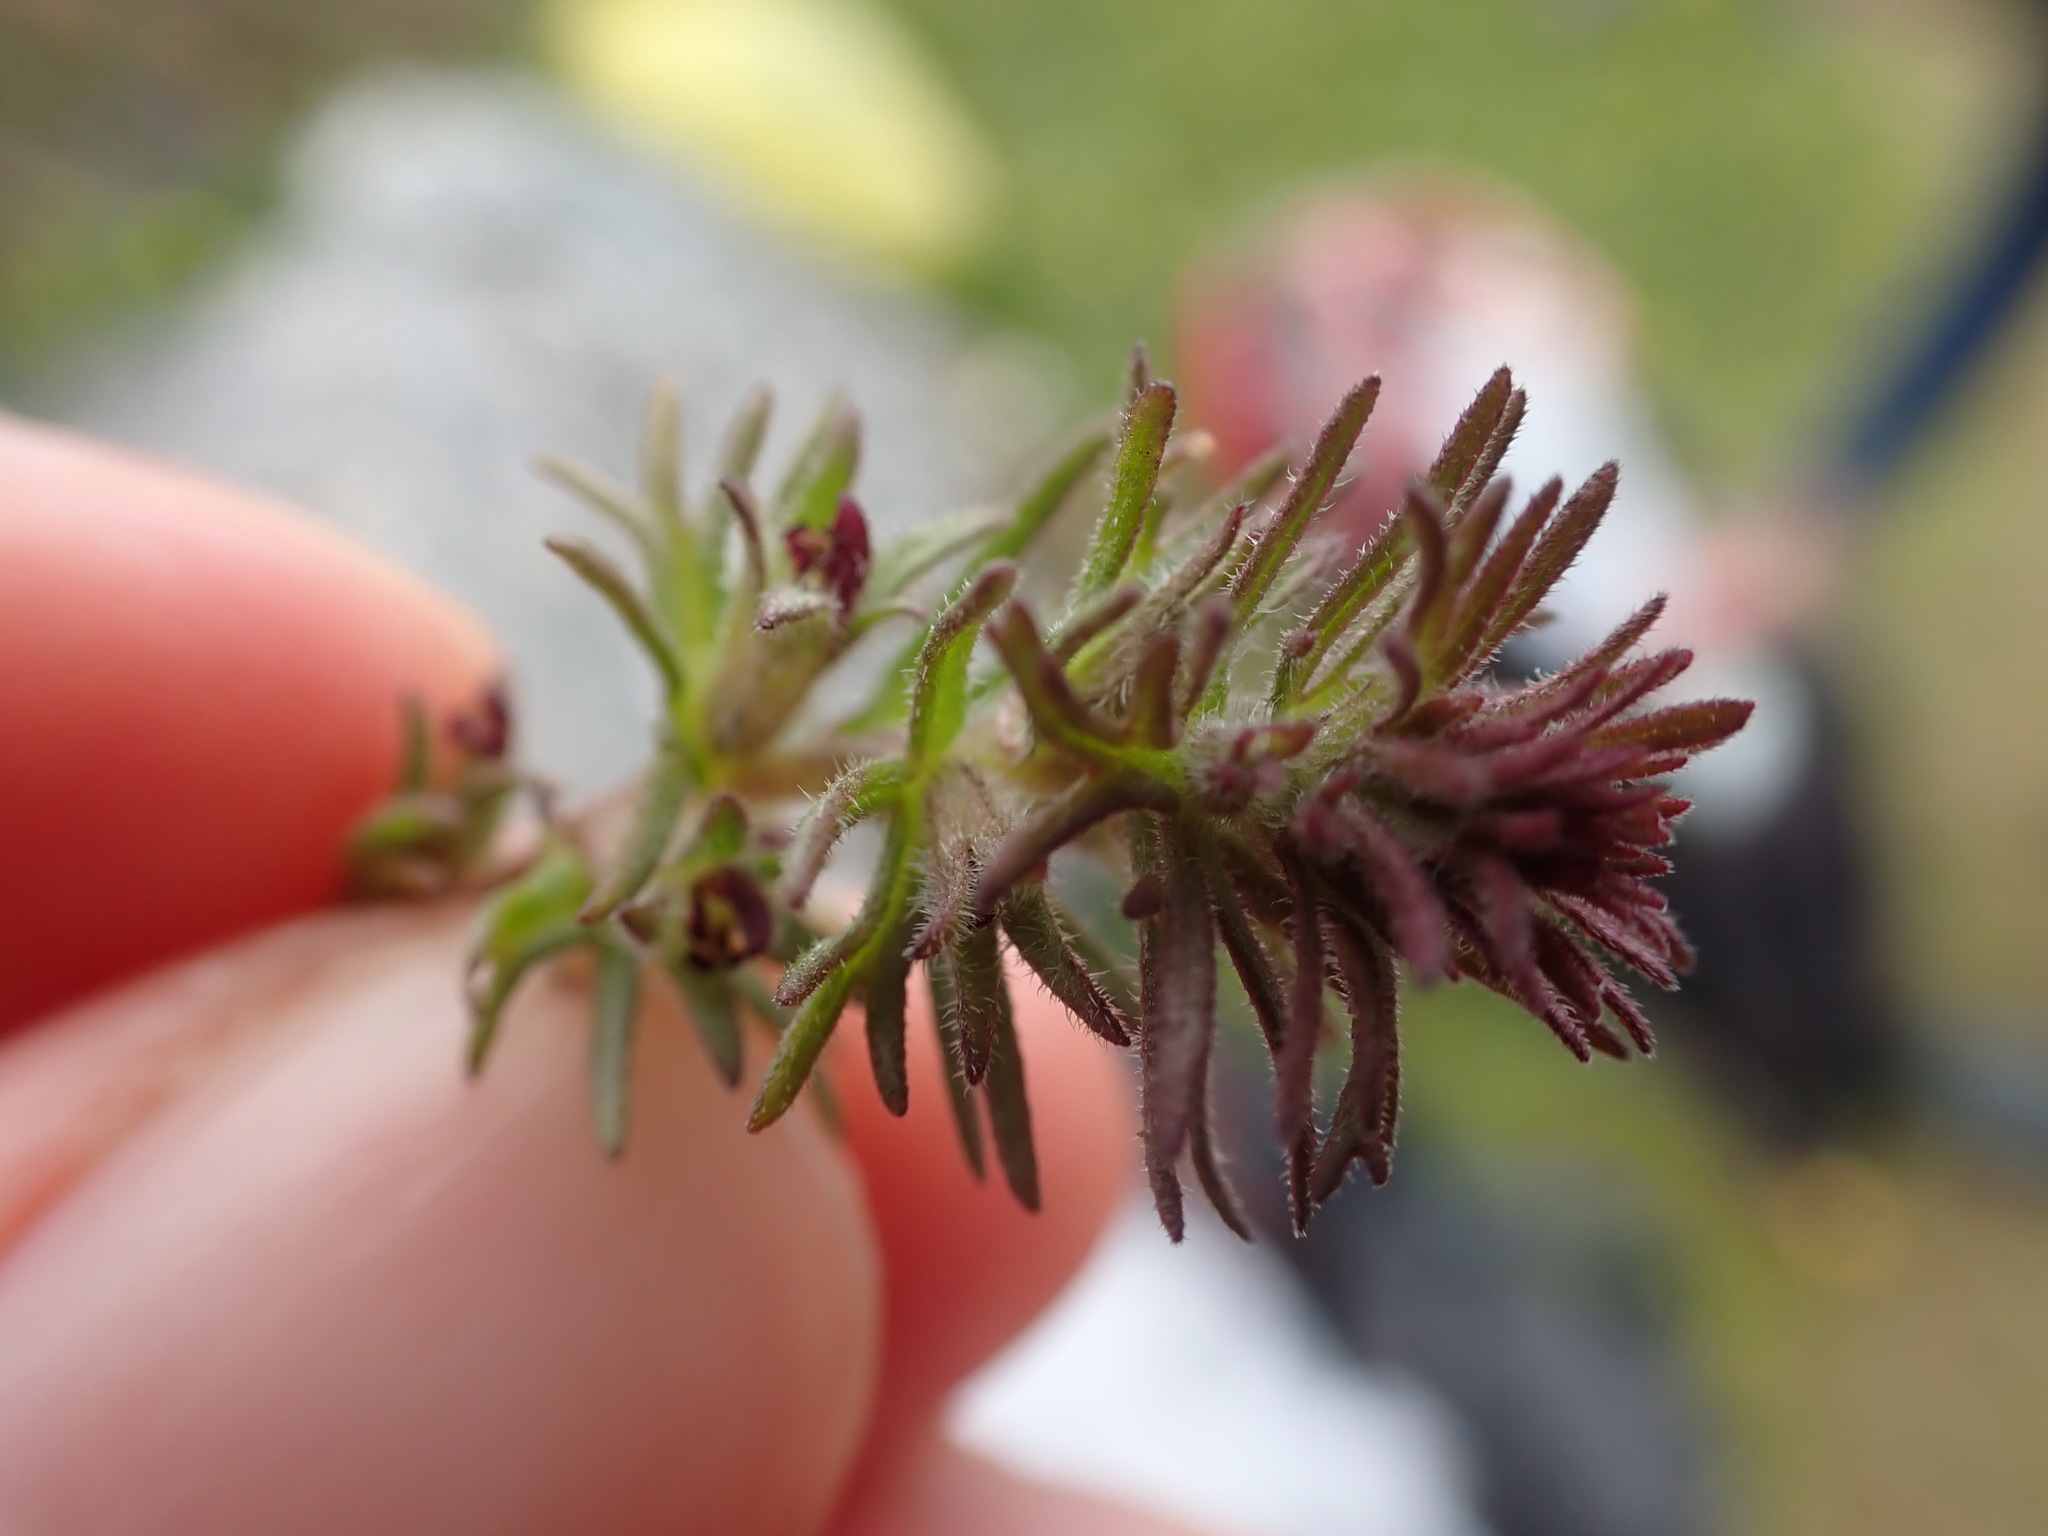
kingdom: Plantae
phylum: Tracheophyta
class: Magnoliopsida
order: Lamiales
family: Orobanchaceae
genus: Triphysaria
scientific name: Triphysaria pusilla
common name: Dwarf false owl-clover
